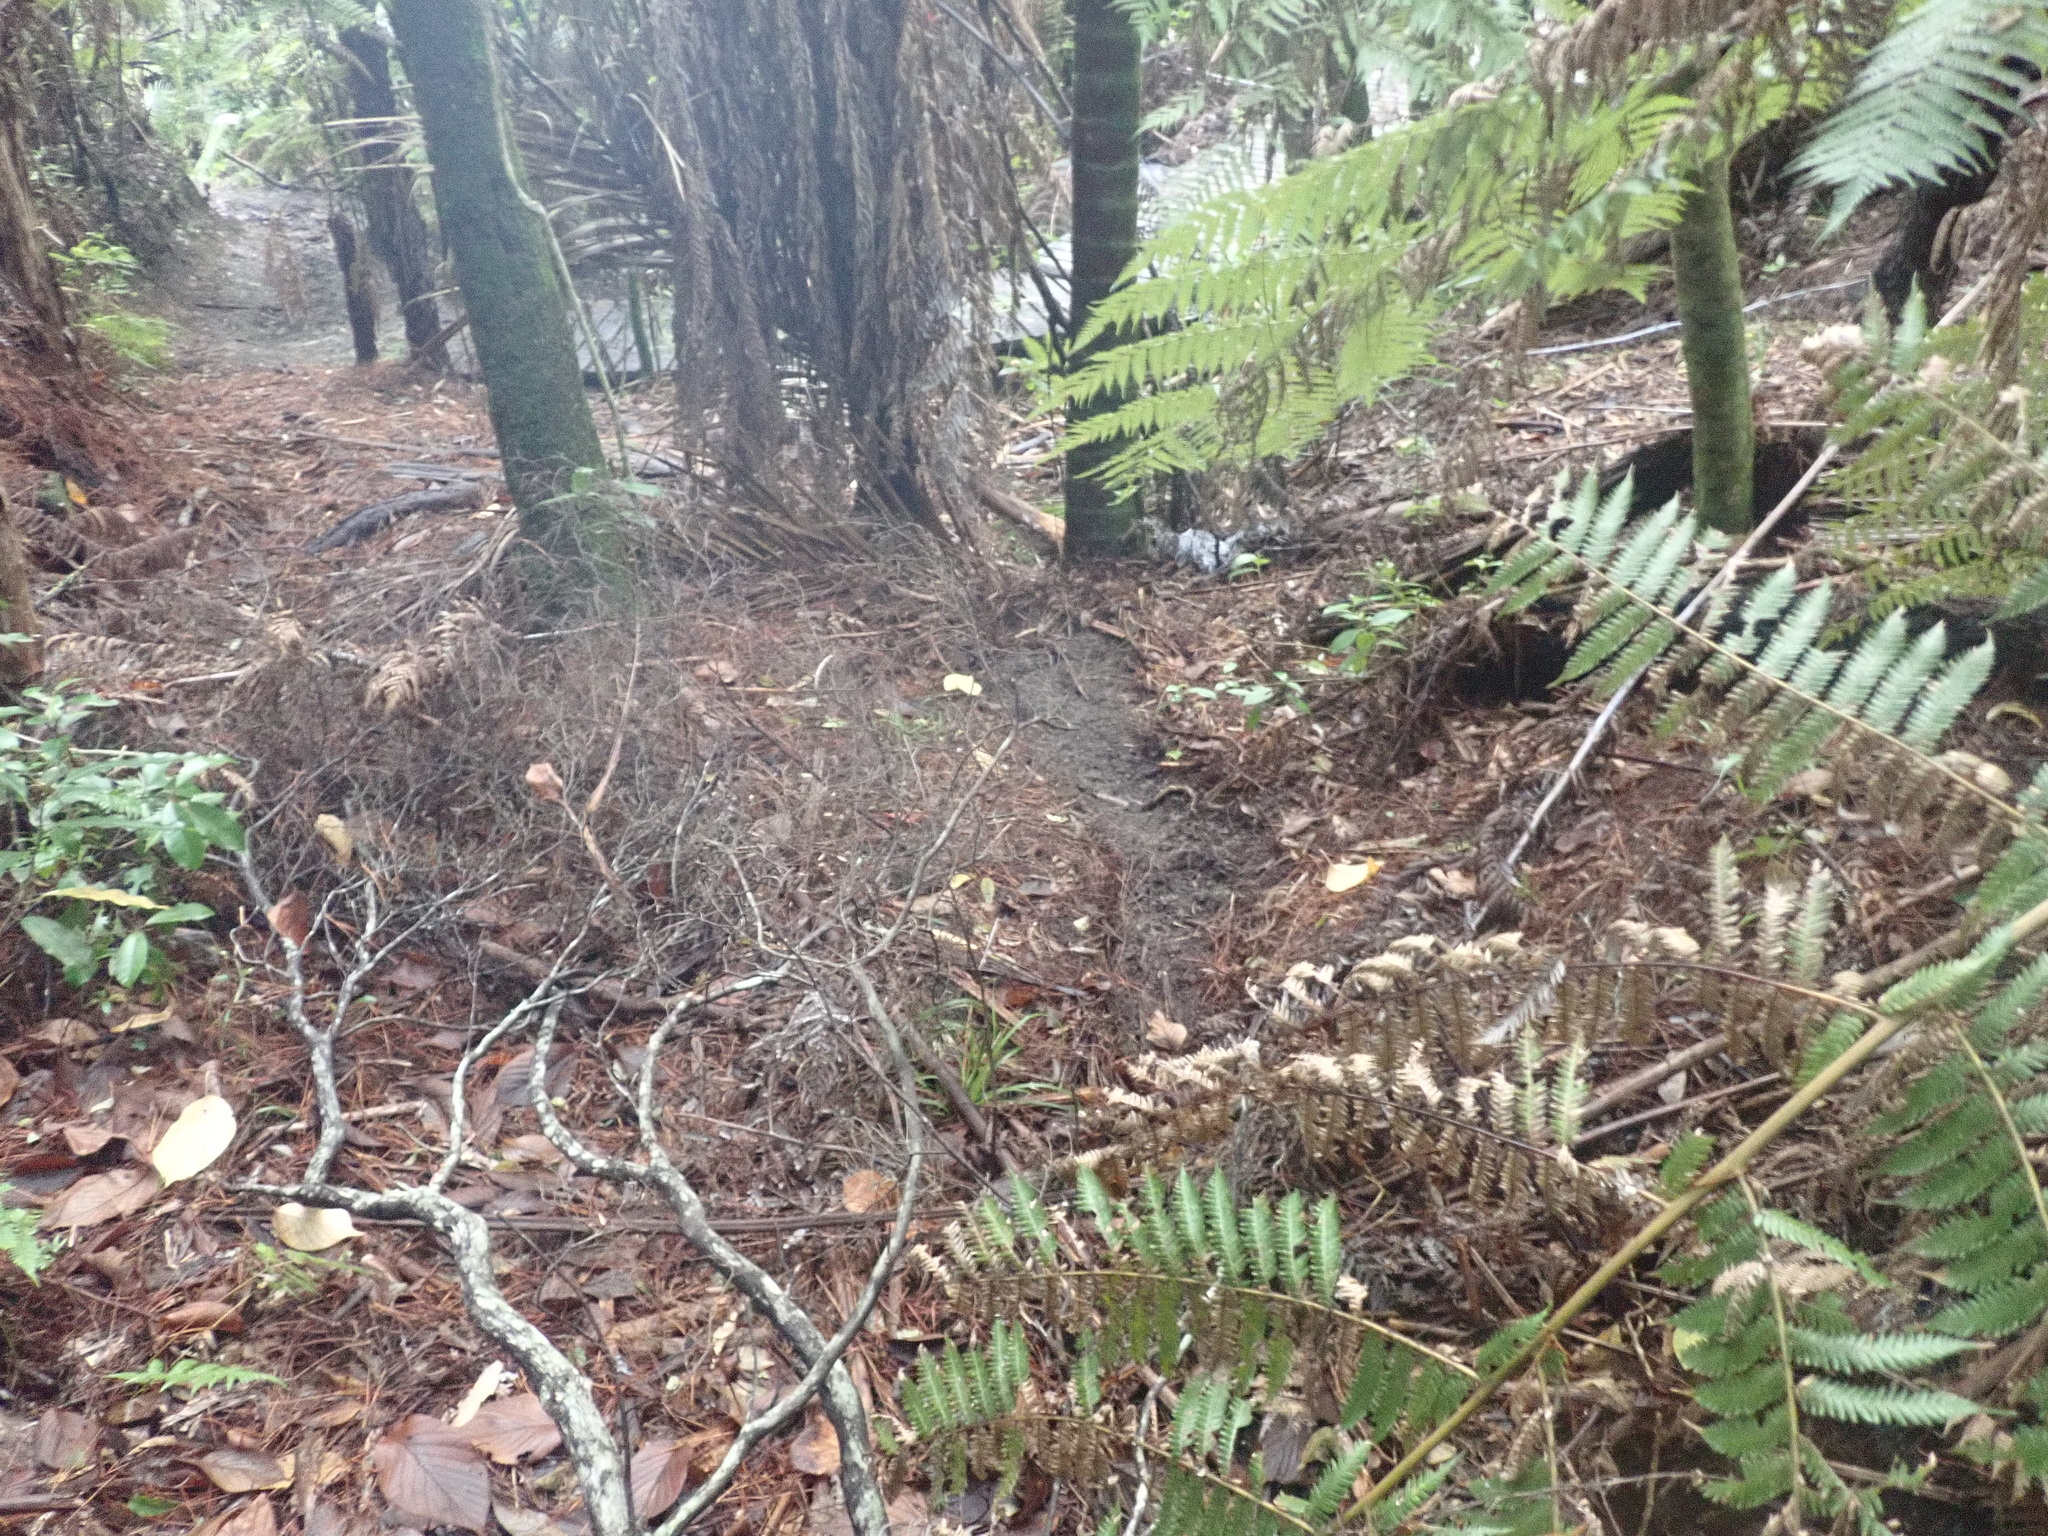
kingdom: Plantae
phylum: Tracheophyta
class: Polypodiopsida
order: Cyatheales
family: Cyatheaceae
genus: Alsophila
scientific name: Alsophila dealbata
